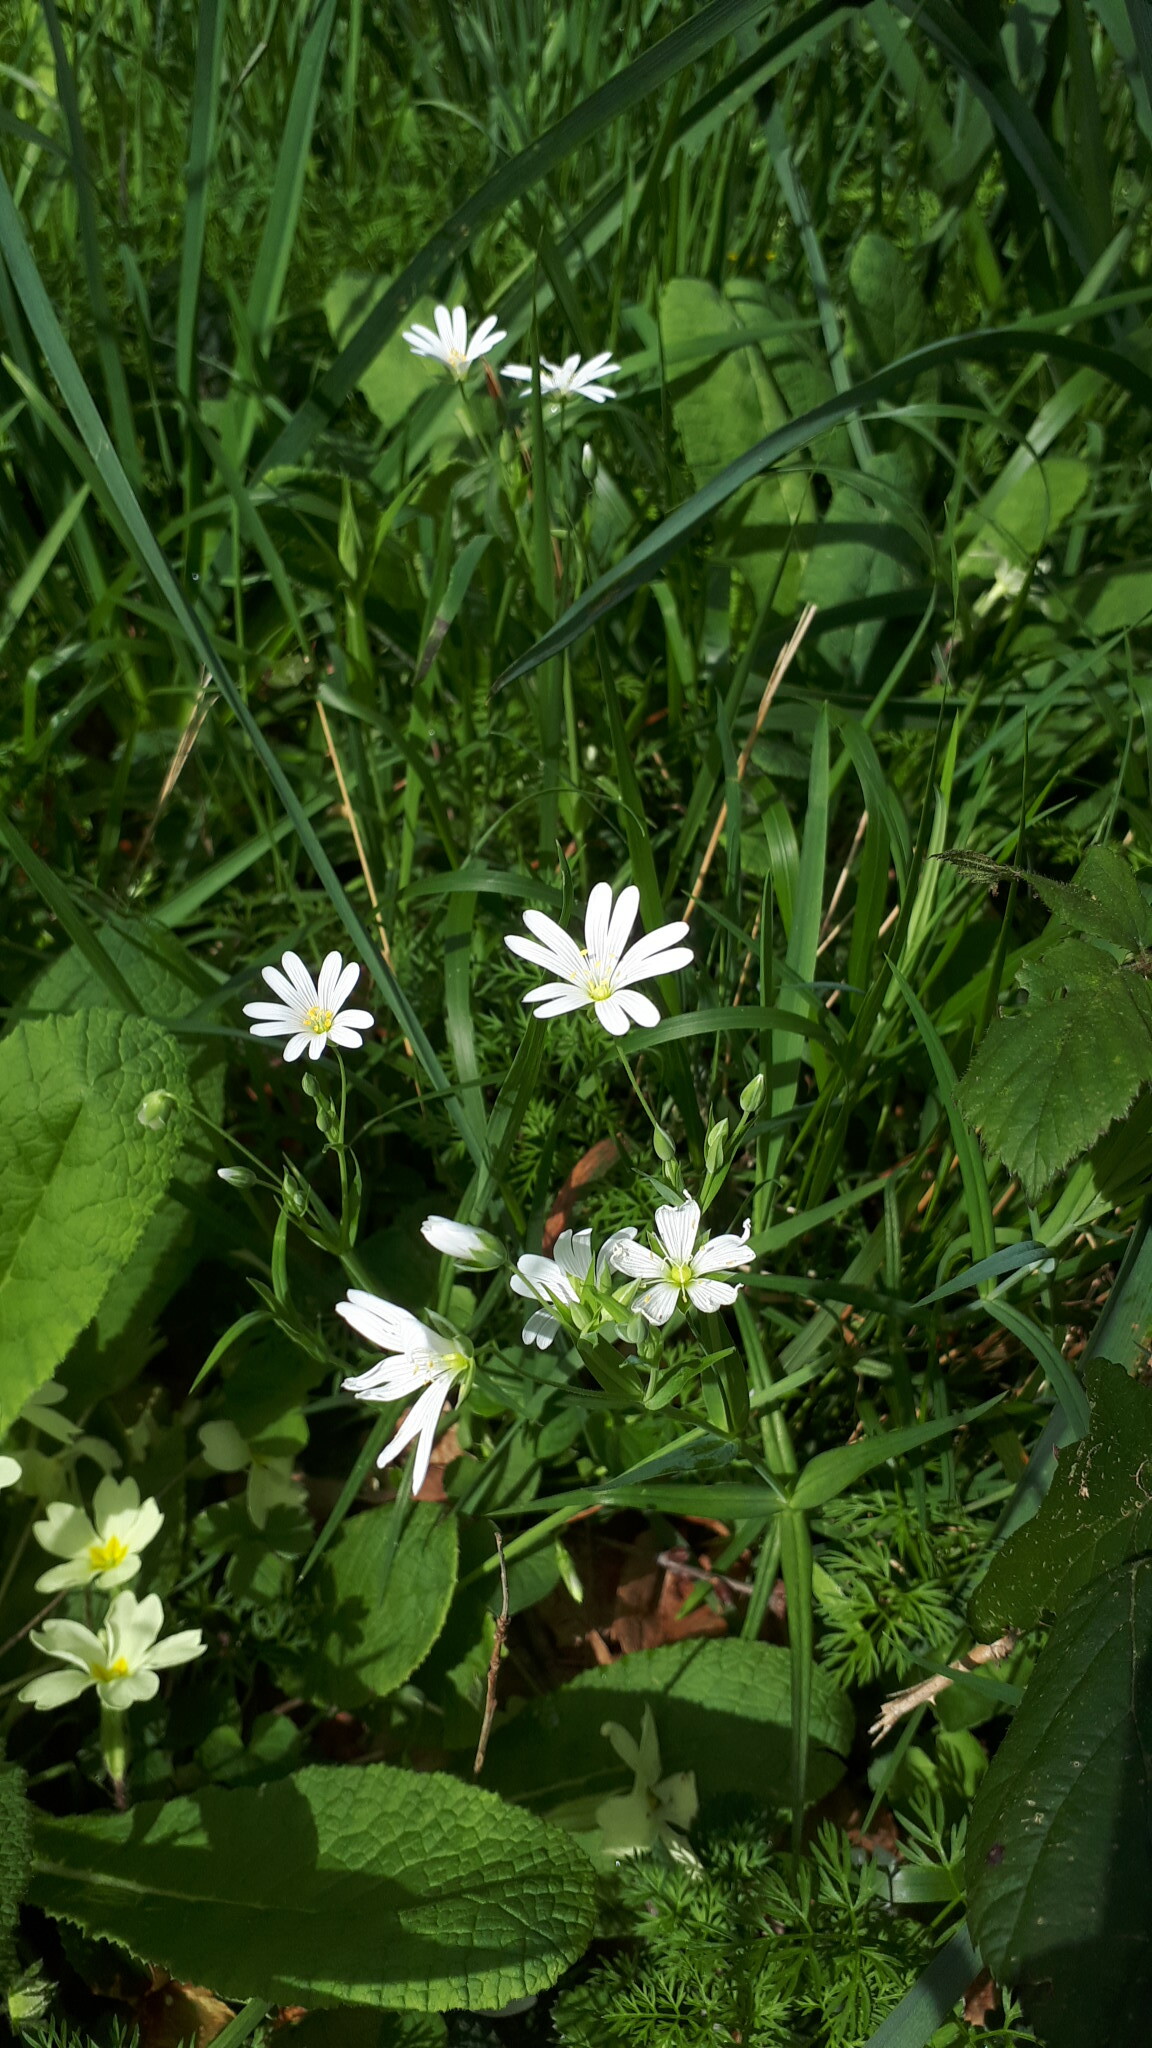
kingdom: Plantae
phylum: Tracheophyta
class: Magnoliopsida
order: Caryophyllales
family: Caryophyllaceae
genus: Rabelera
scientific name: Rabelera holostea
